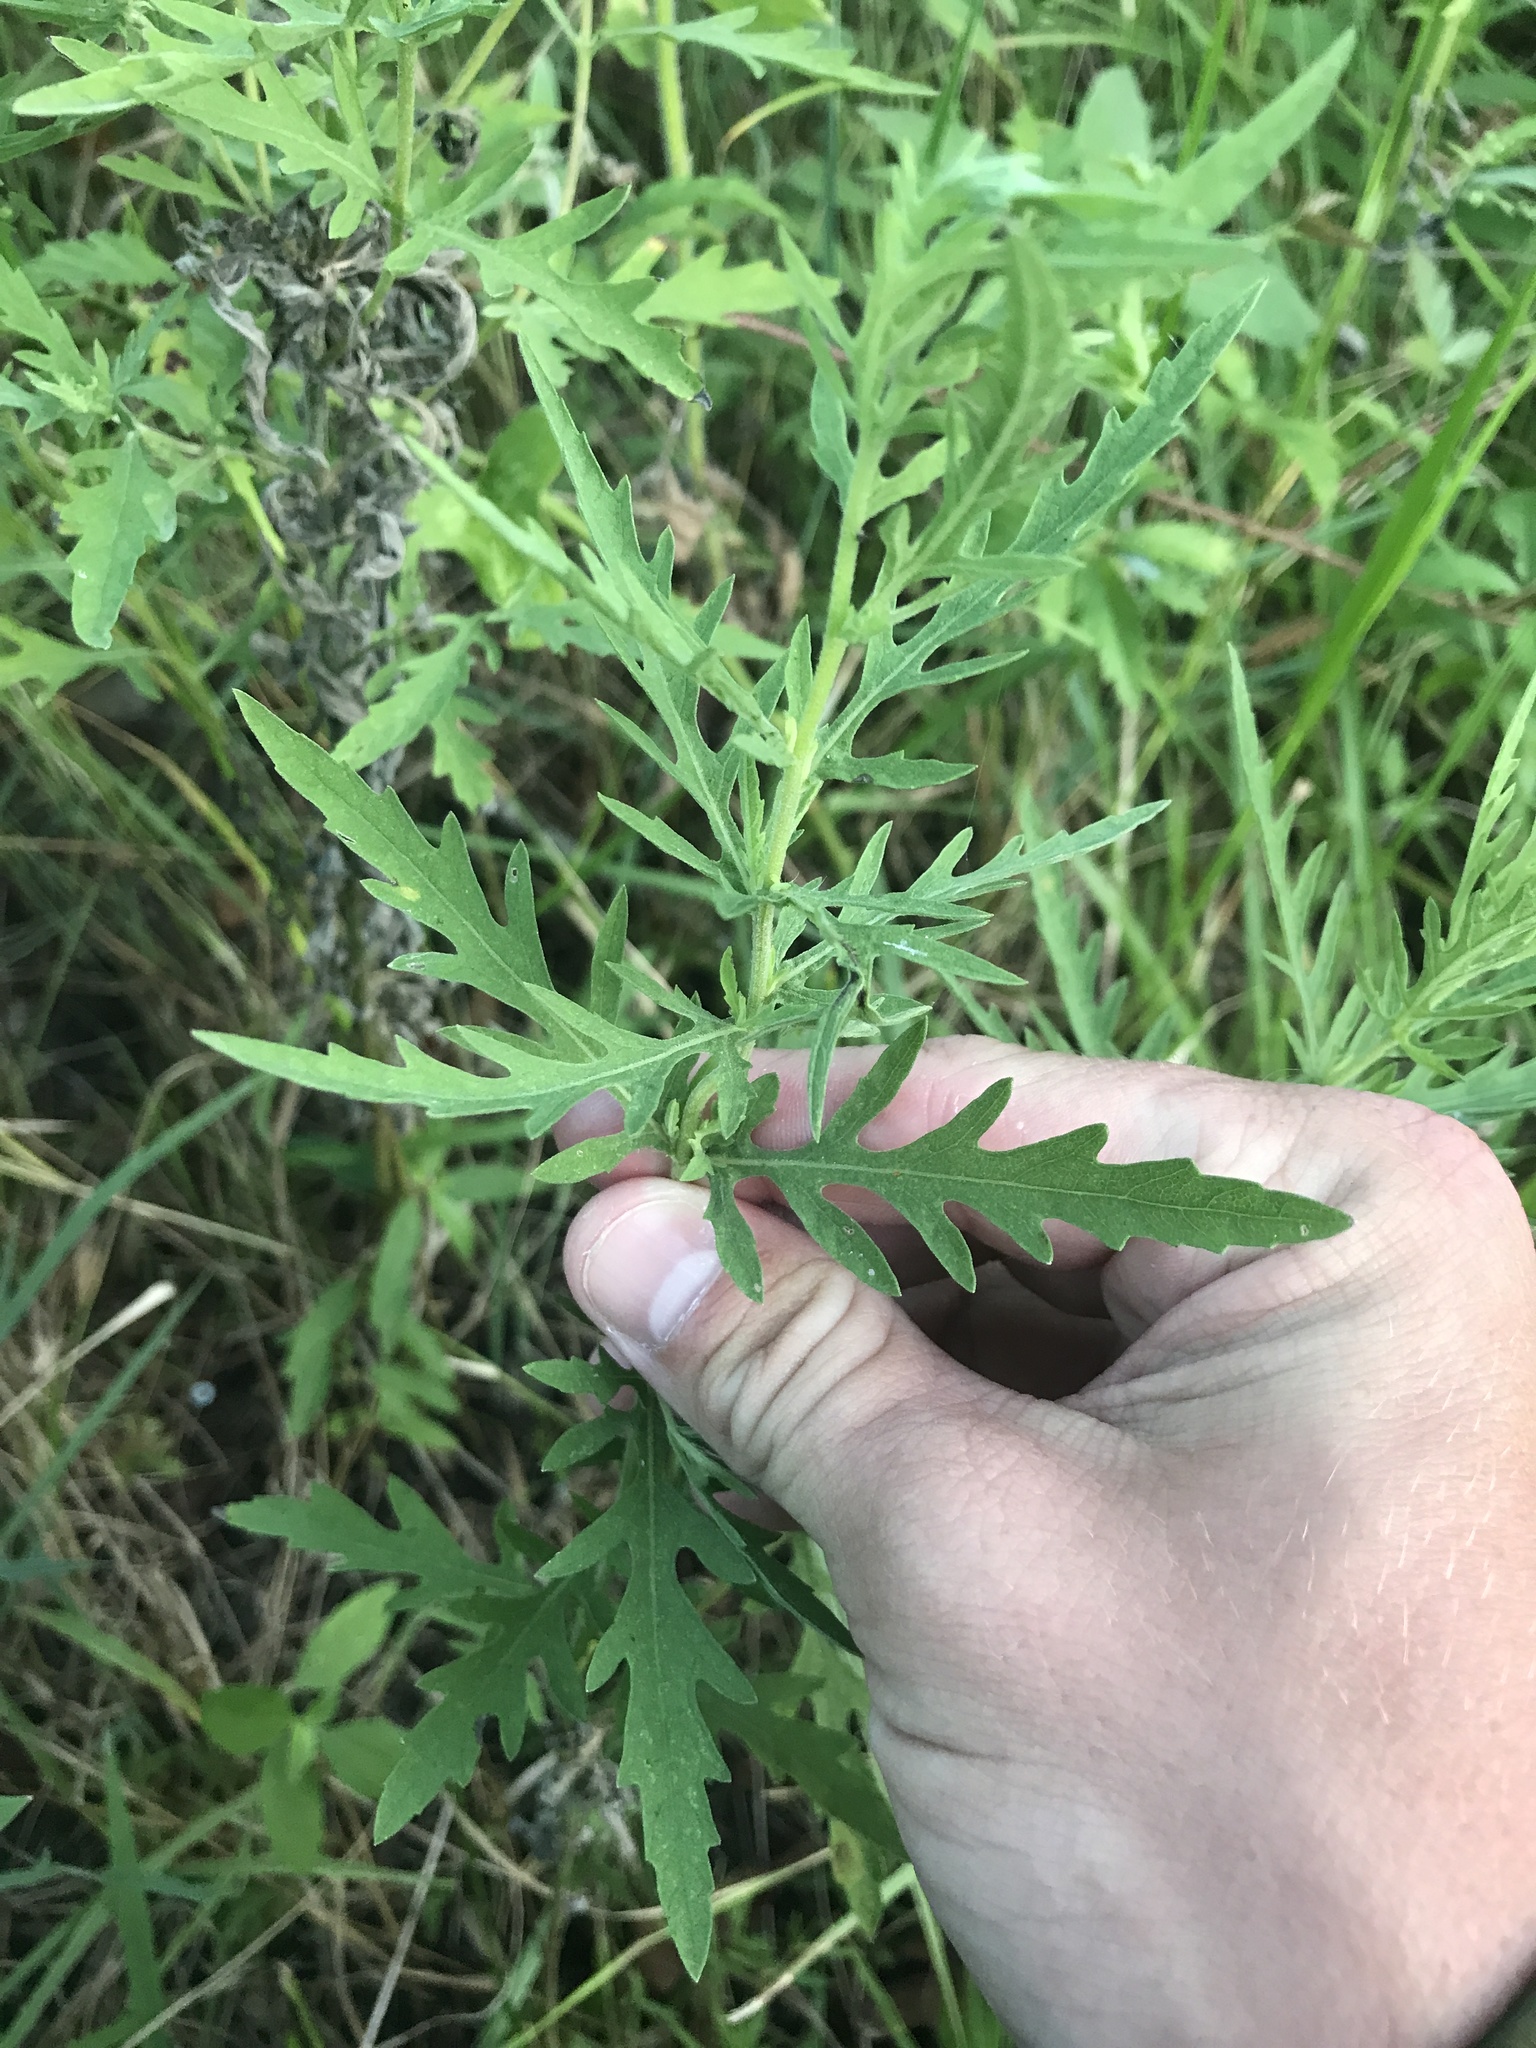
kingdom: Plantae
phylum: Tracheophyta
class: Magnoliopsida
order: Asterales
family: Asteraceae
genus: Ambrosia
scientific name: Ambrosia psilostachya
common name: Perennial ragweed
